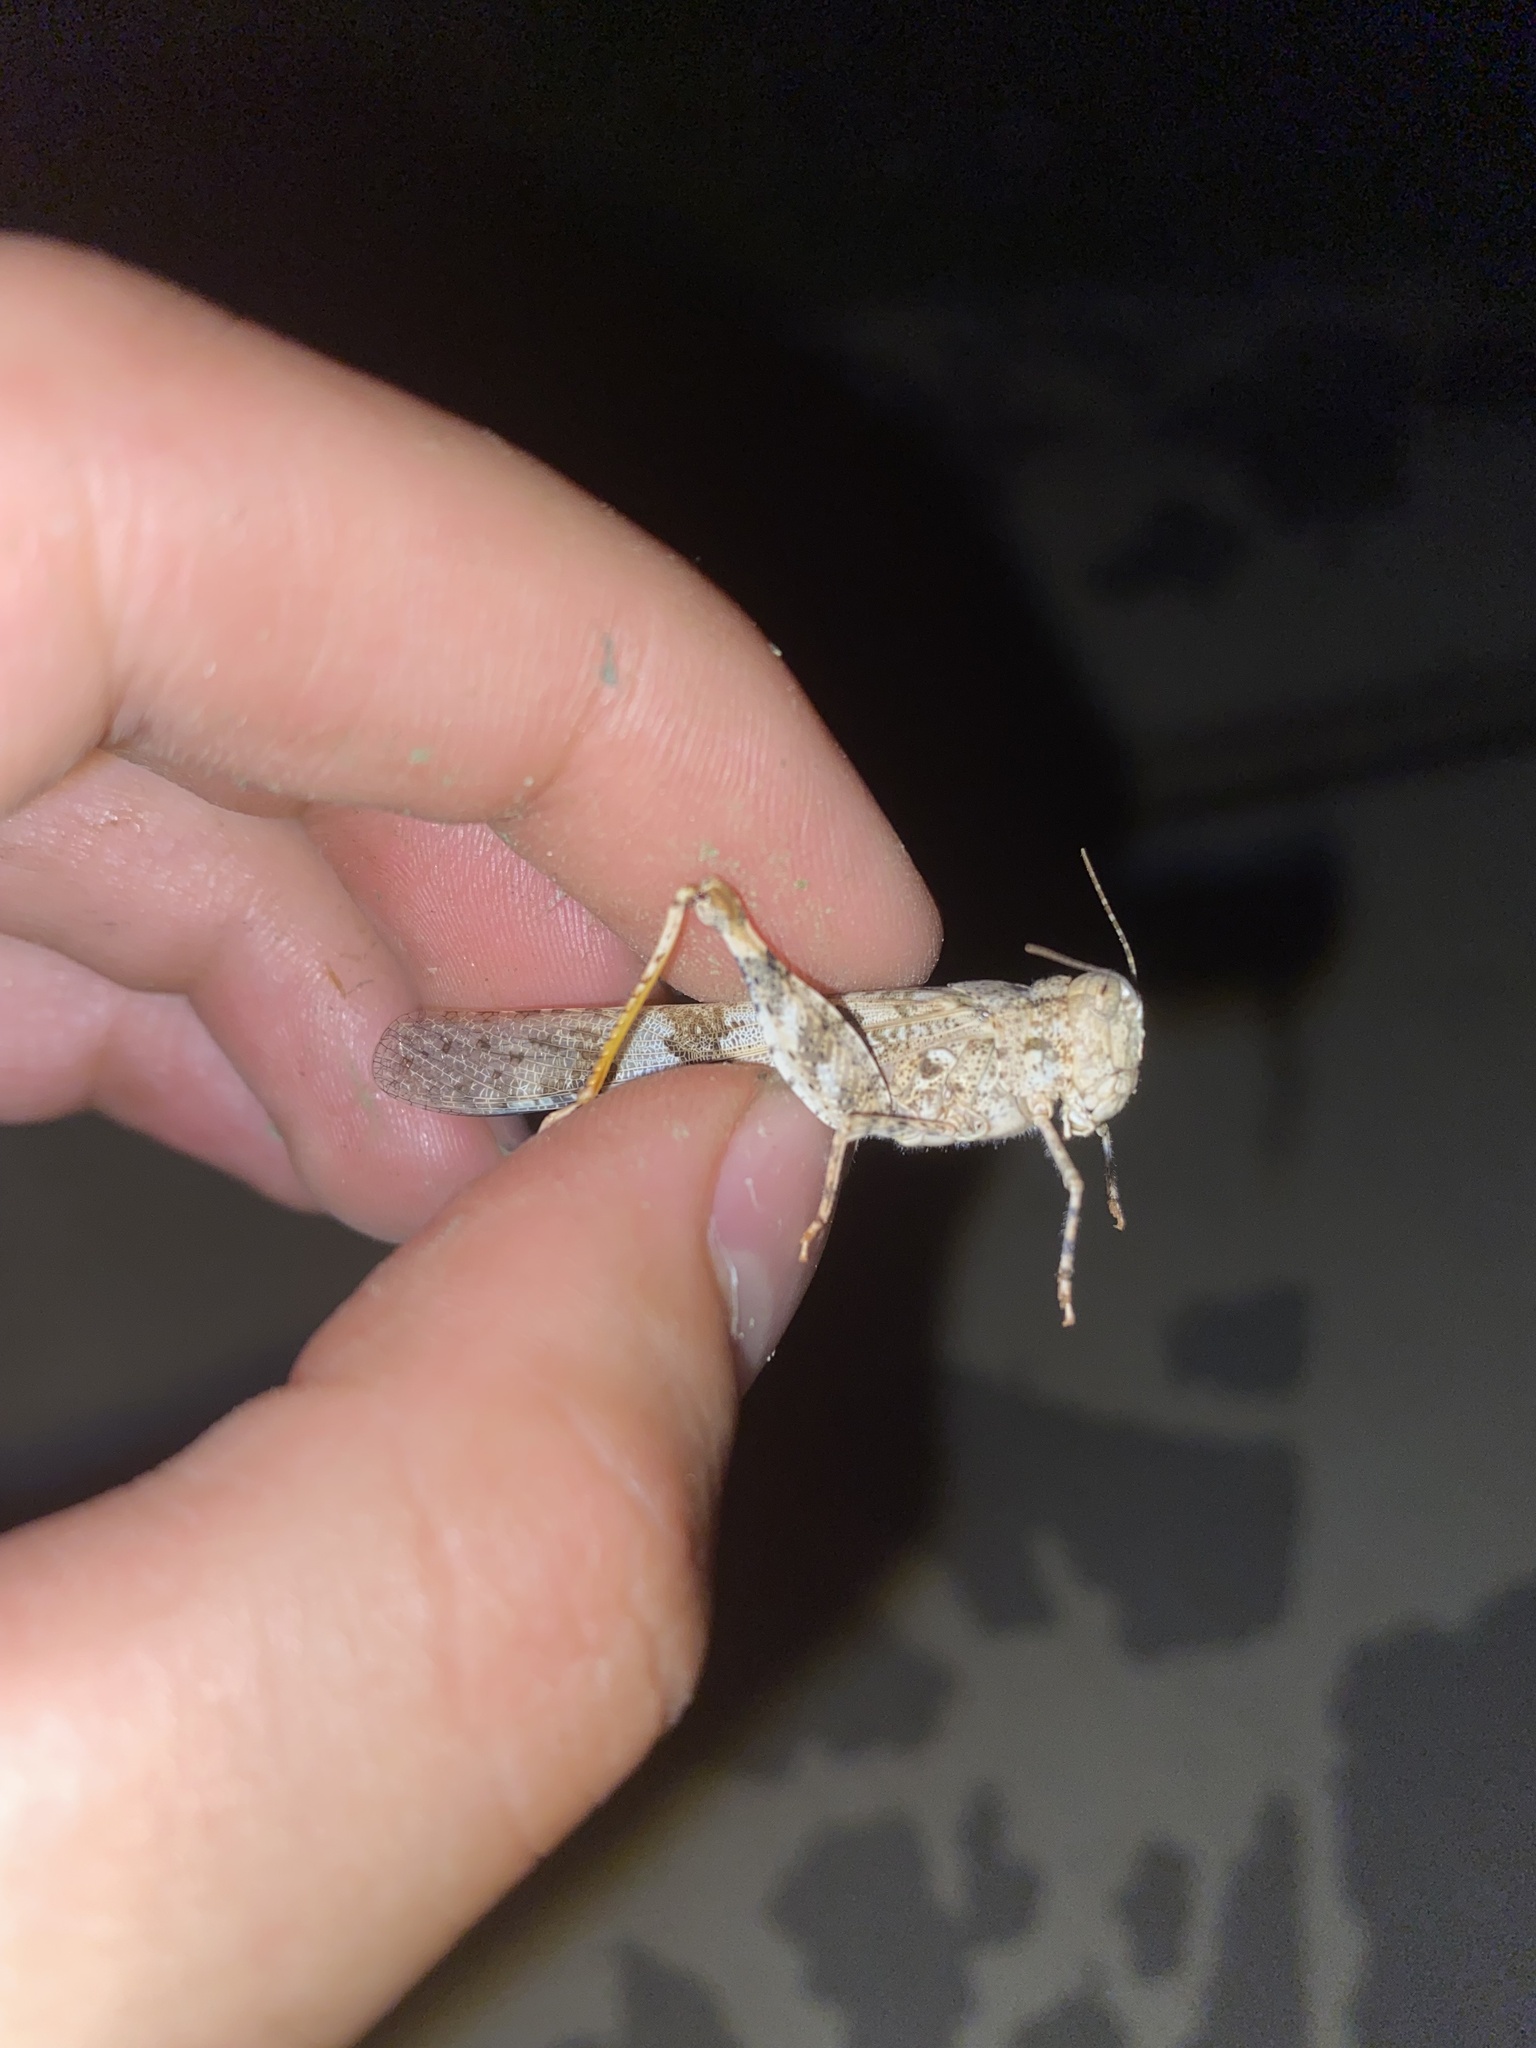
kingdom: Animalia
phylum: Arthropoda
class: Insecta
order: Orthoptera
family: Acrididae
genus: Trimerotropis
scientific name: Trimerotropis pallidipennis
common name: Pallid-winged grasshopper
